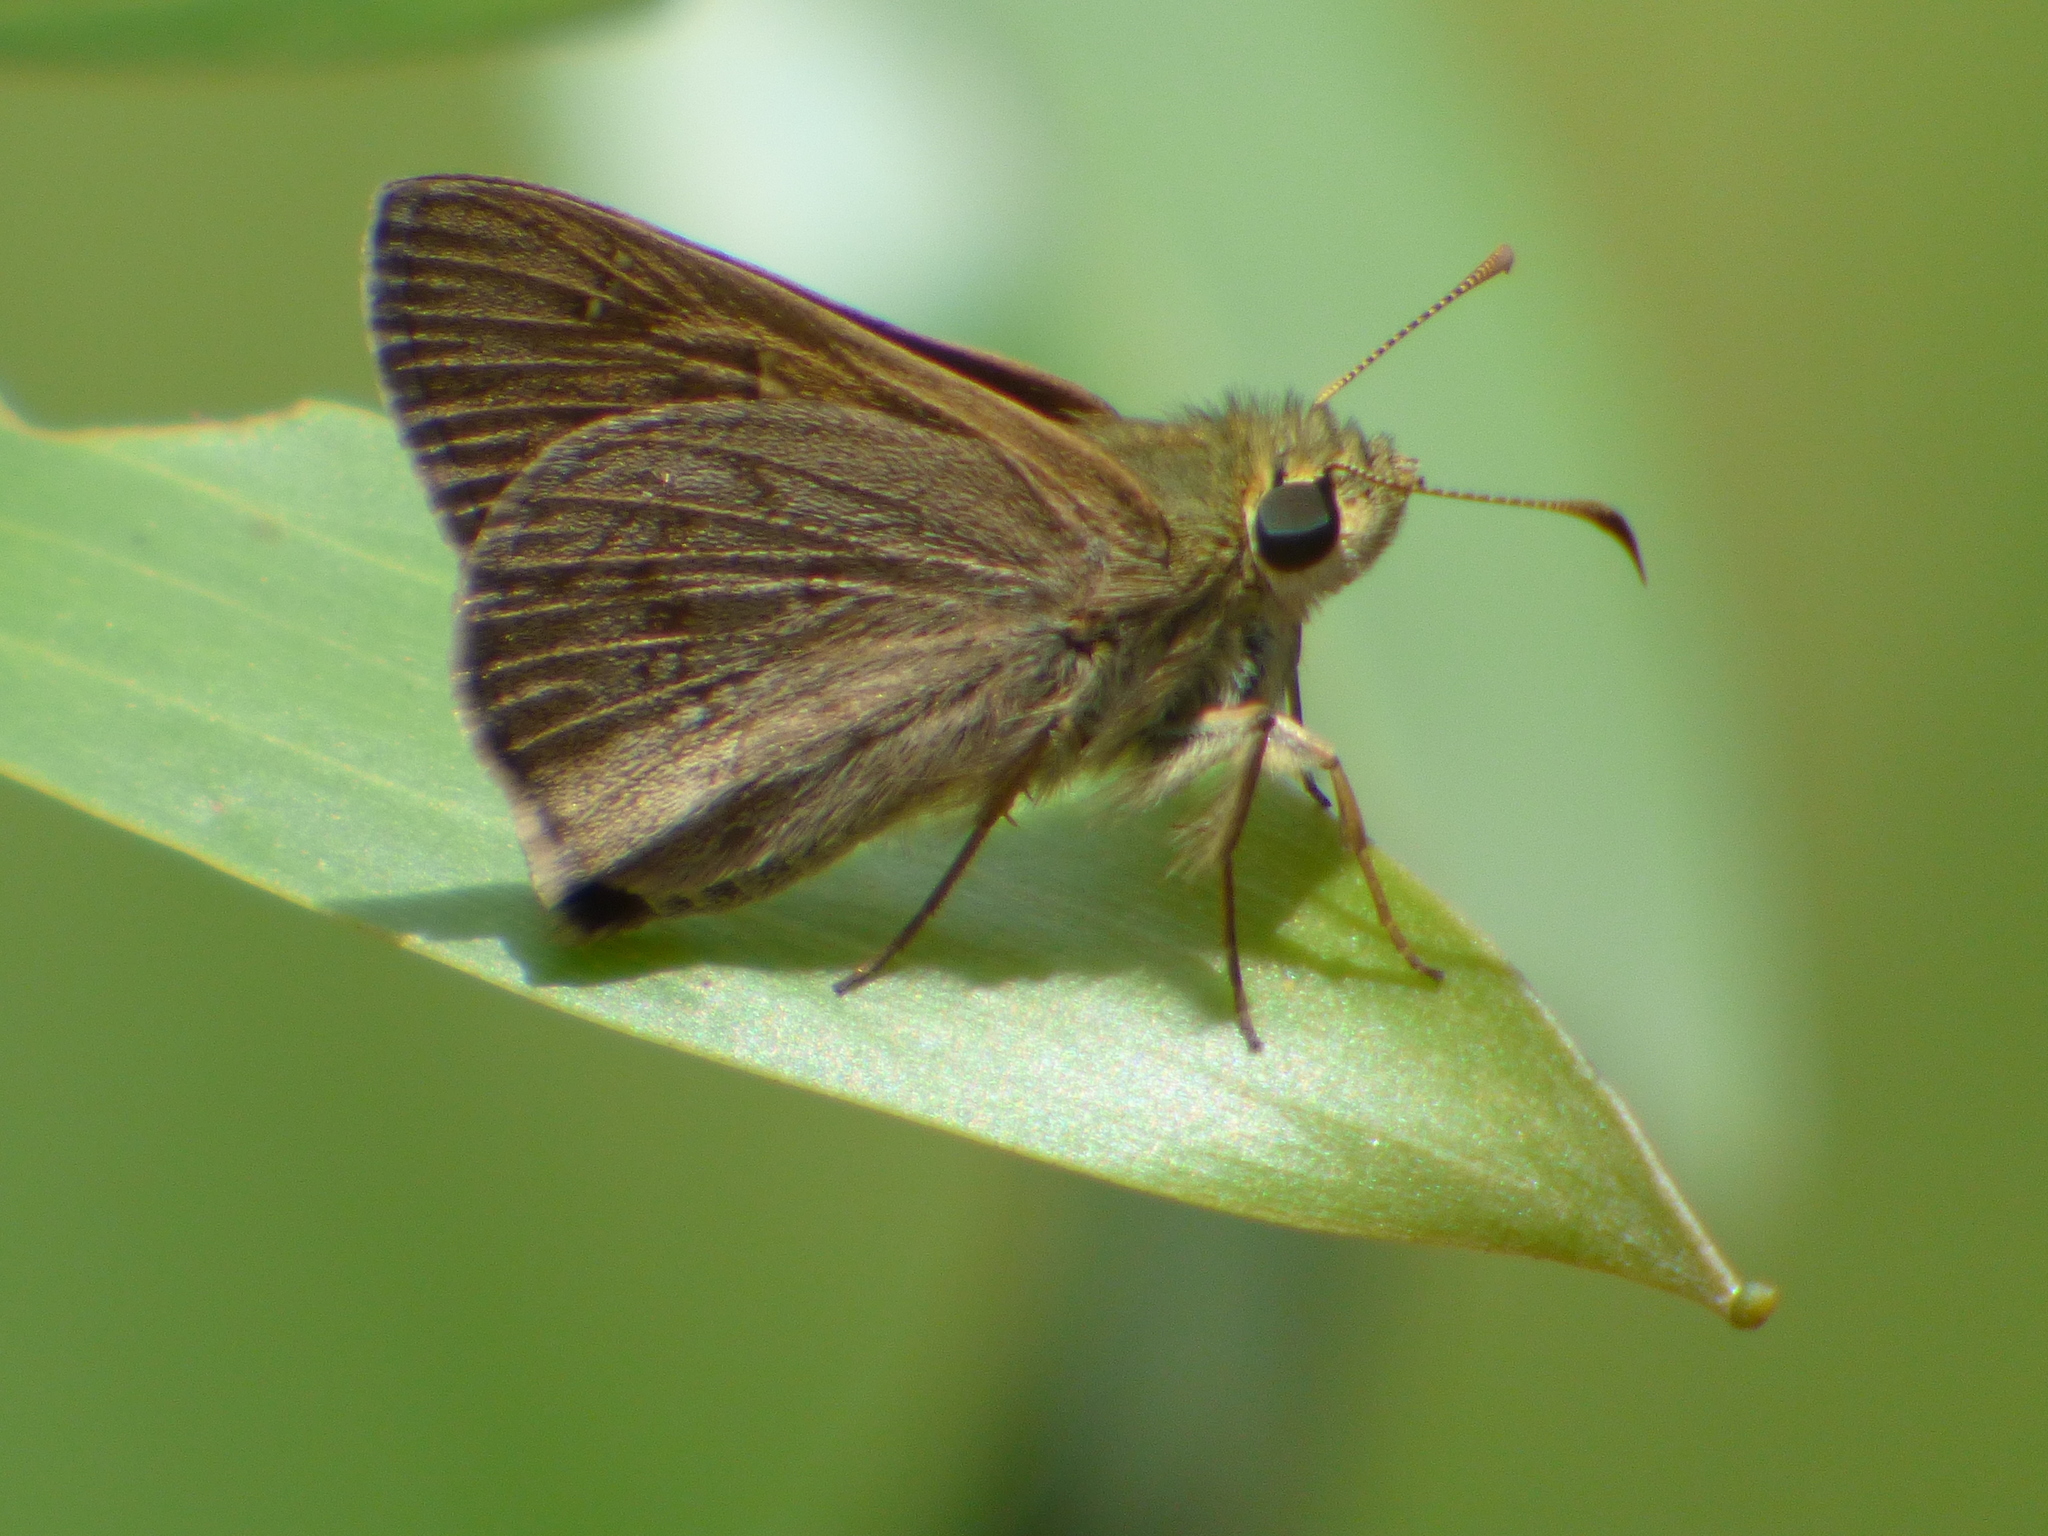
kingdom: Animalia
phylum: Arthropoda
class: Insecta
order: Lepidoptera
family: Hesperiidae
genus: Toxidia
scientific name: Toxidia
